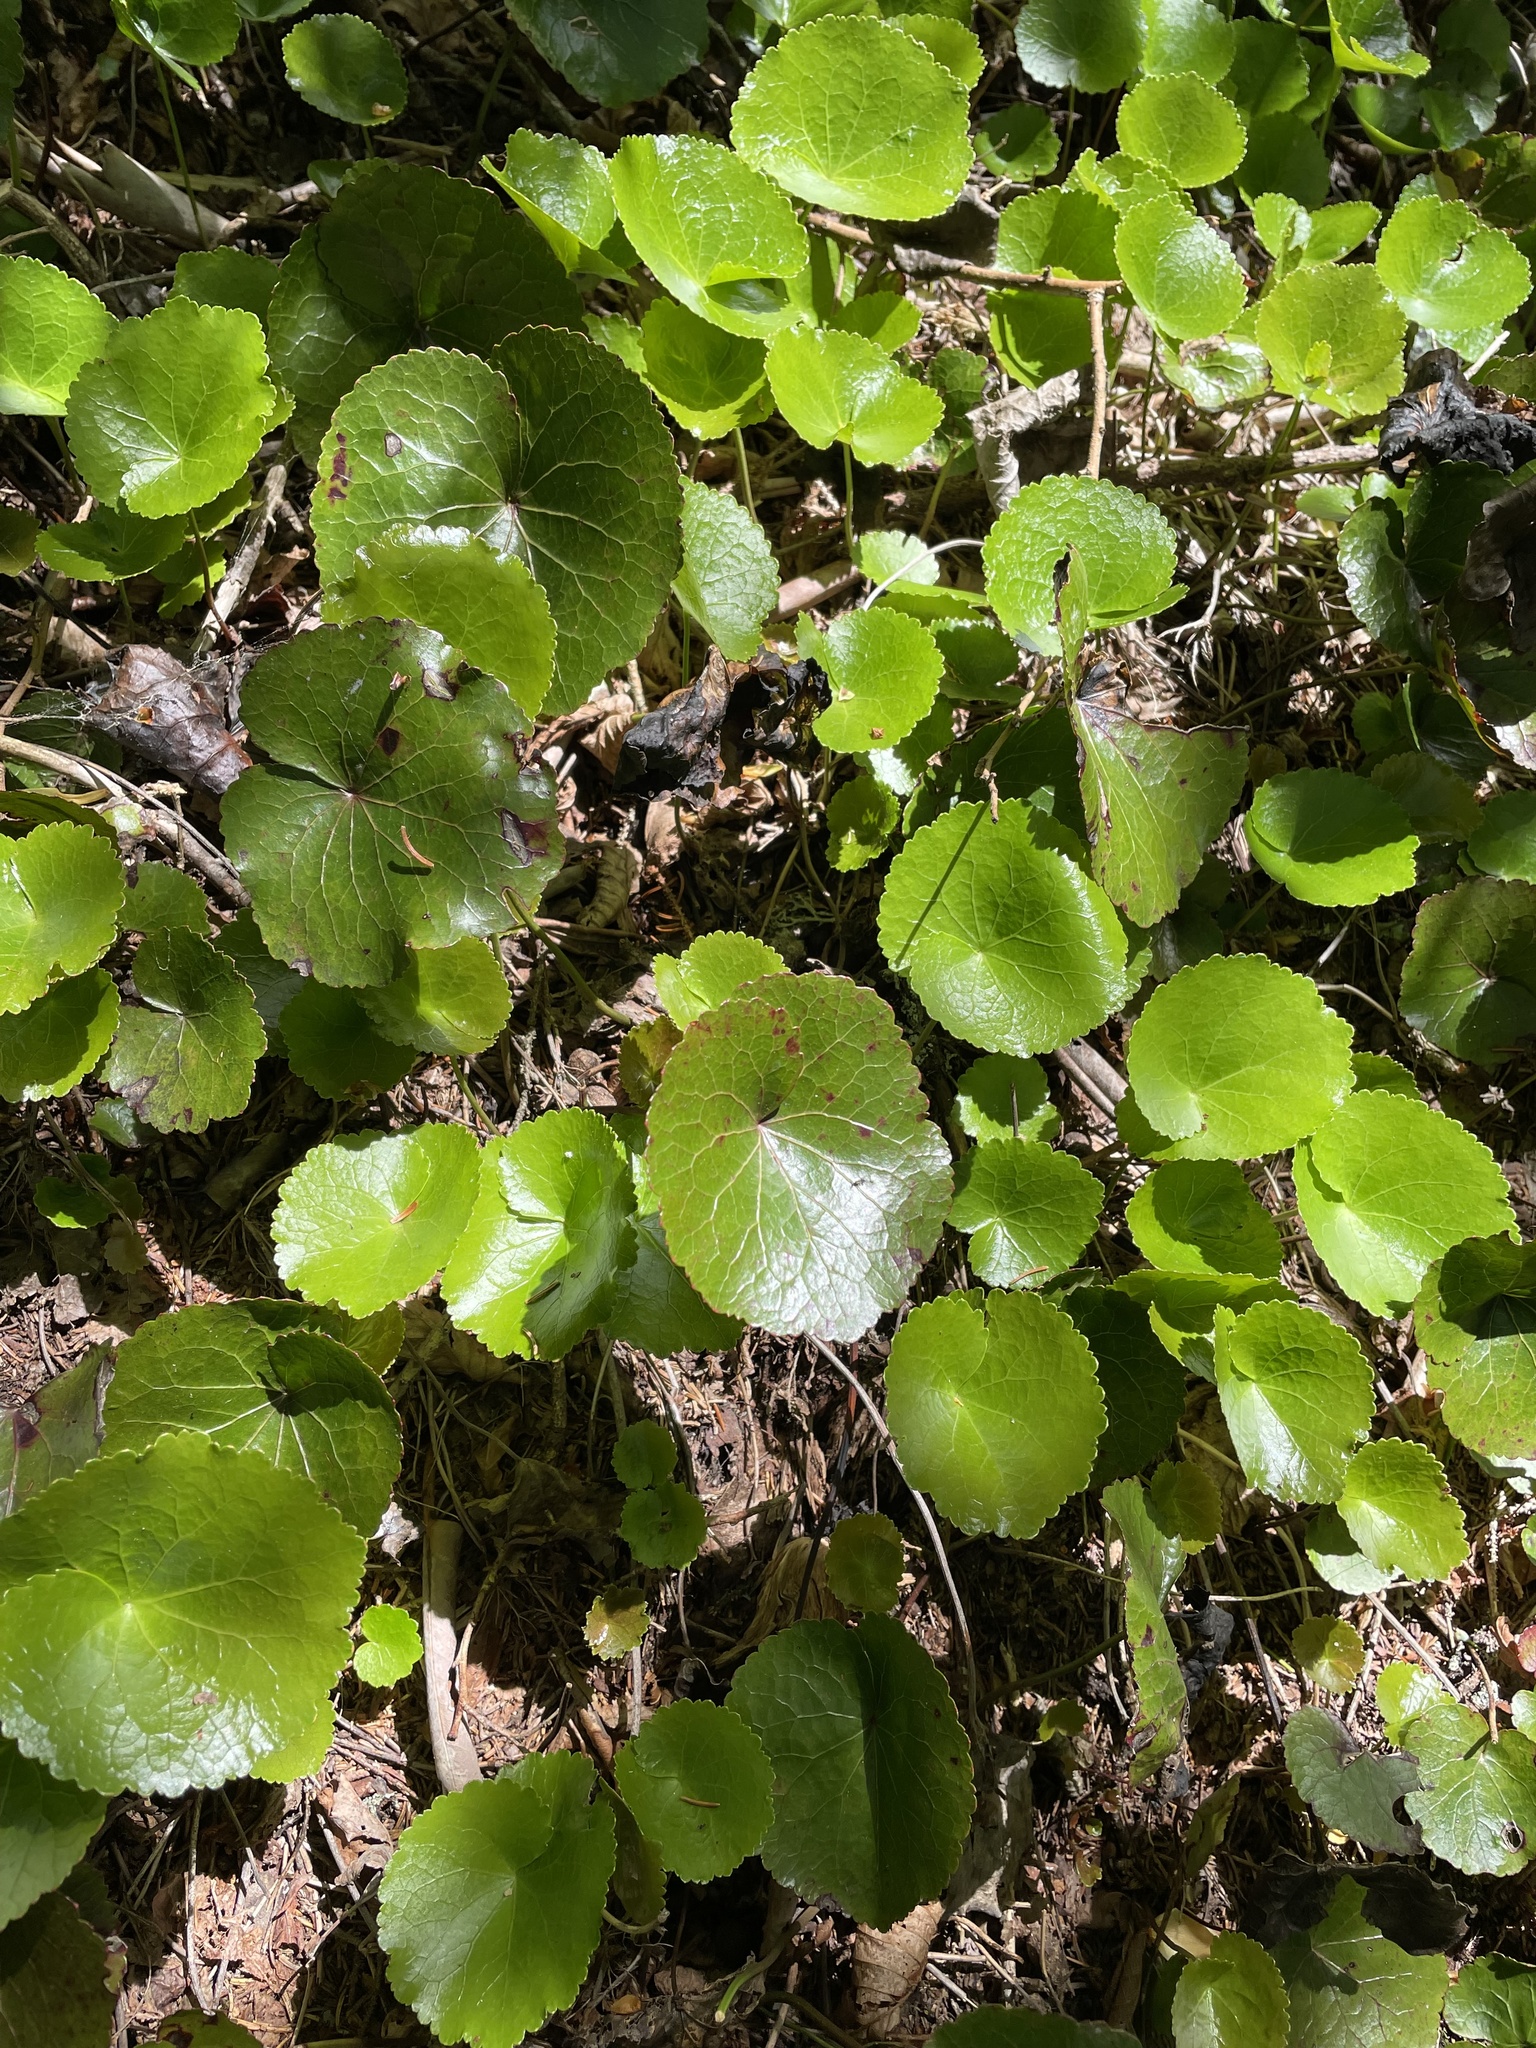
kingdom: Plantae
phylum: Tracheophyta
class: Magnoliopsida
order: Ericales
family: Diapensiaceae
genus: Galax
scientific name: Galax urceolata
